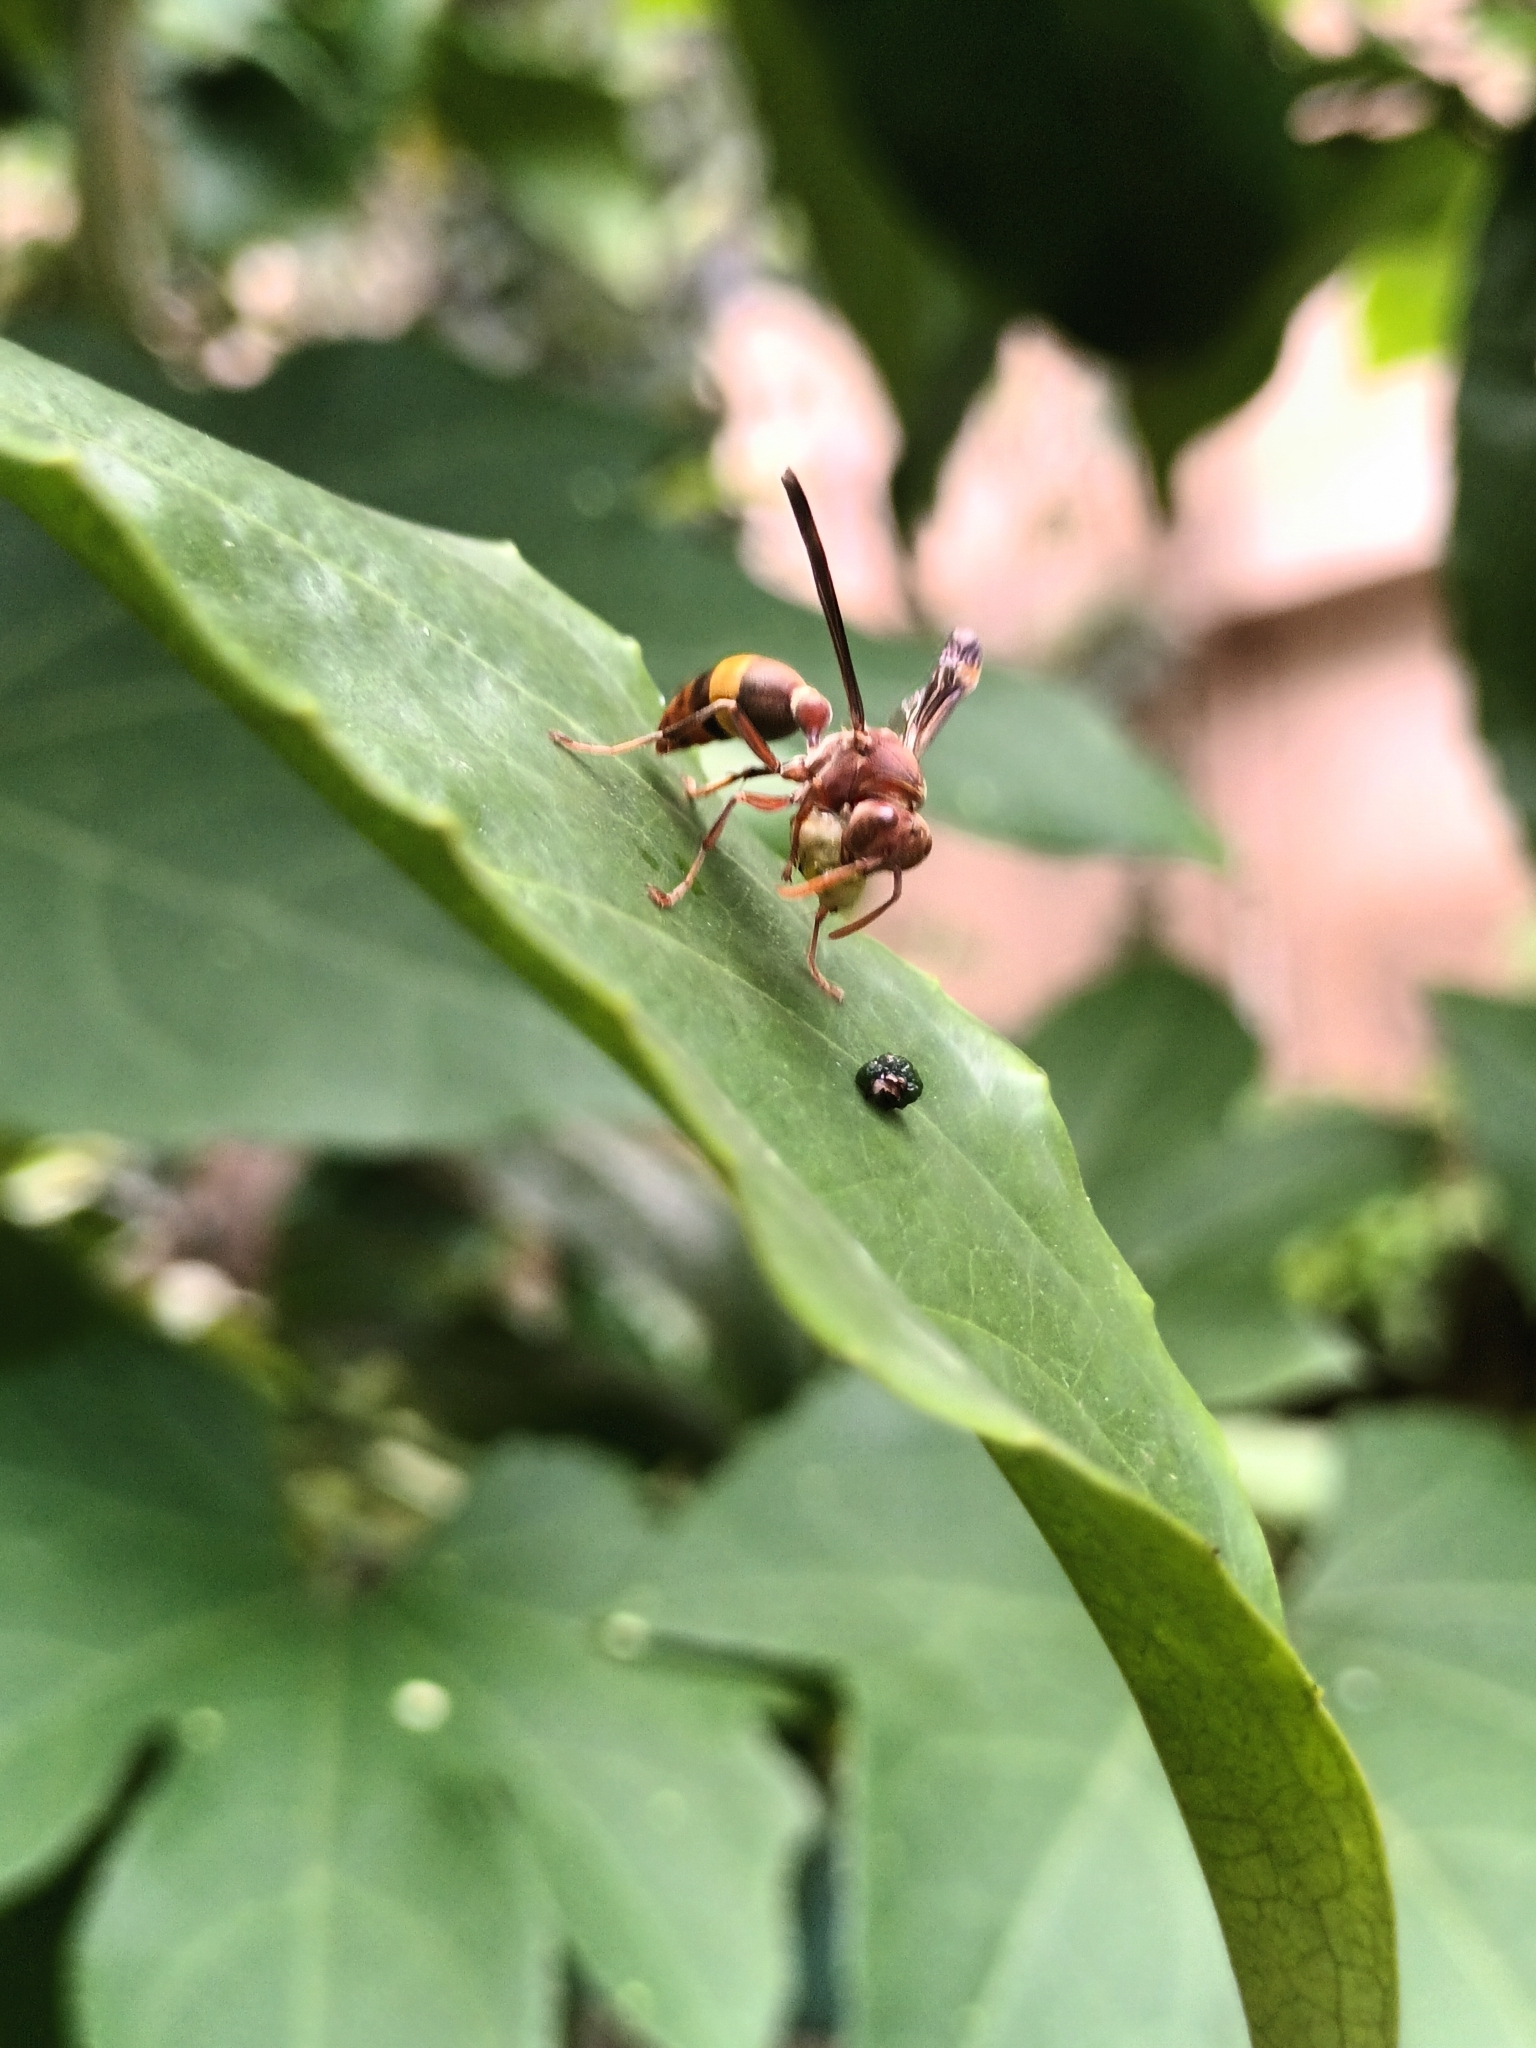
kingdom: Animalia
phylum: Arthropoda
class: Insecta
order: Hymenoptera
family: Vespidae
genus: Ropalidia
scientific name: Ropalidia
